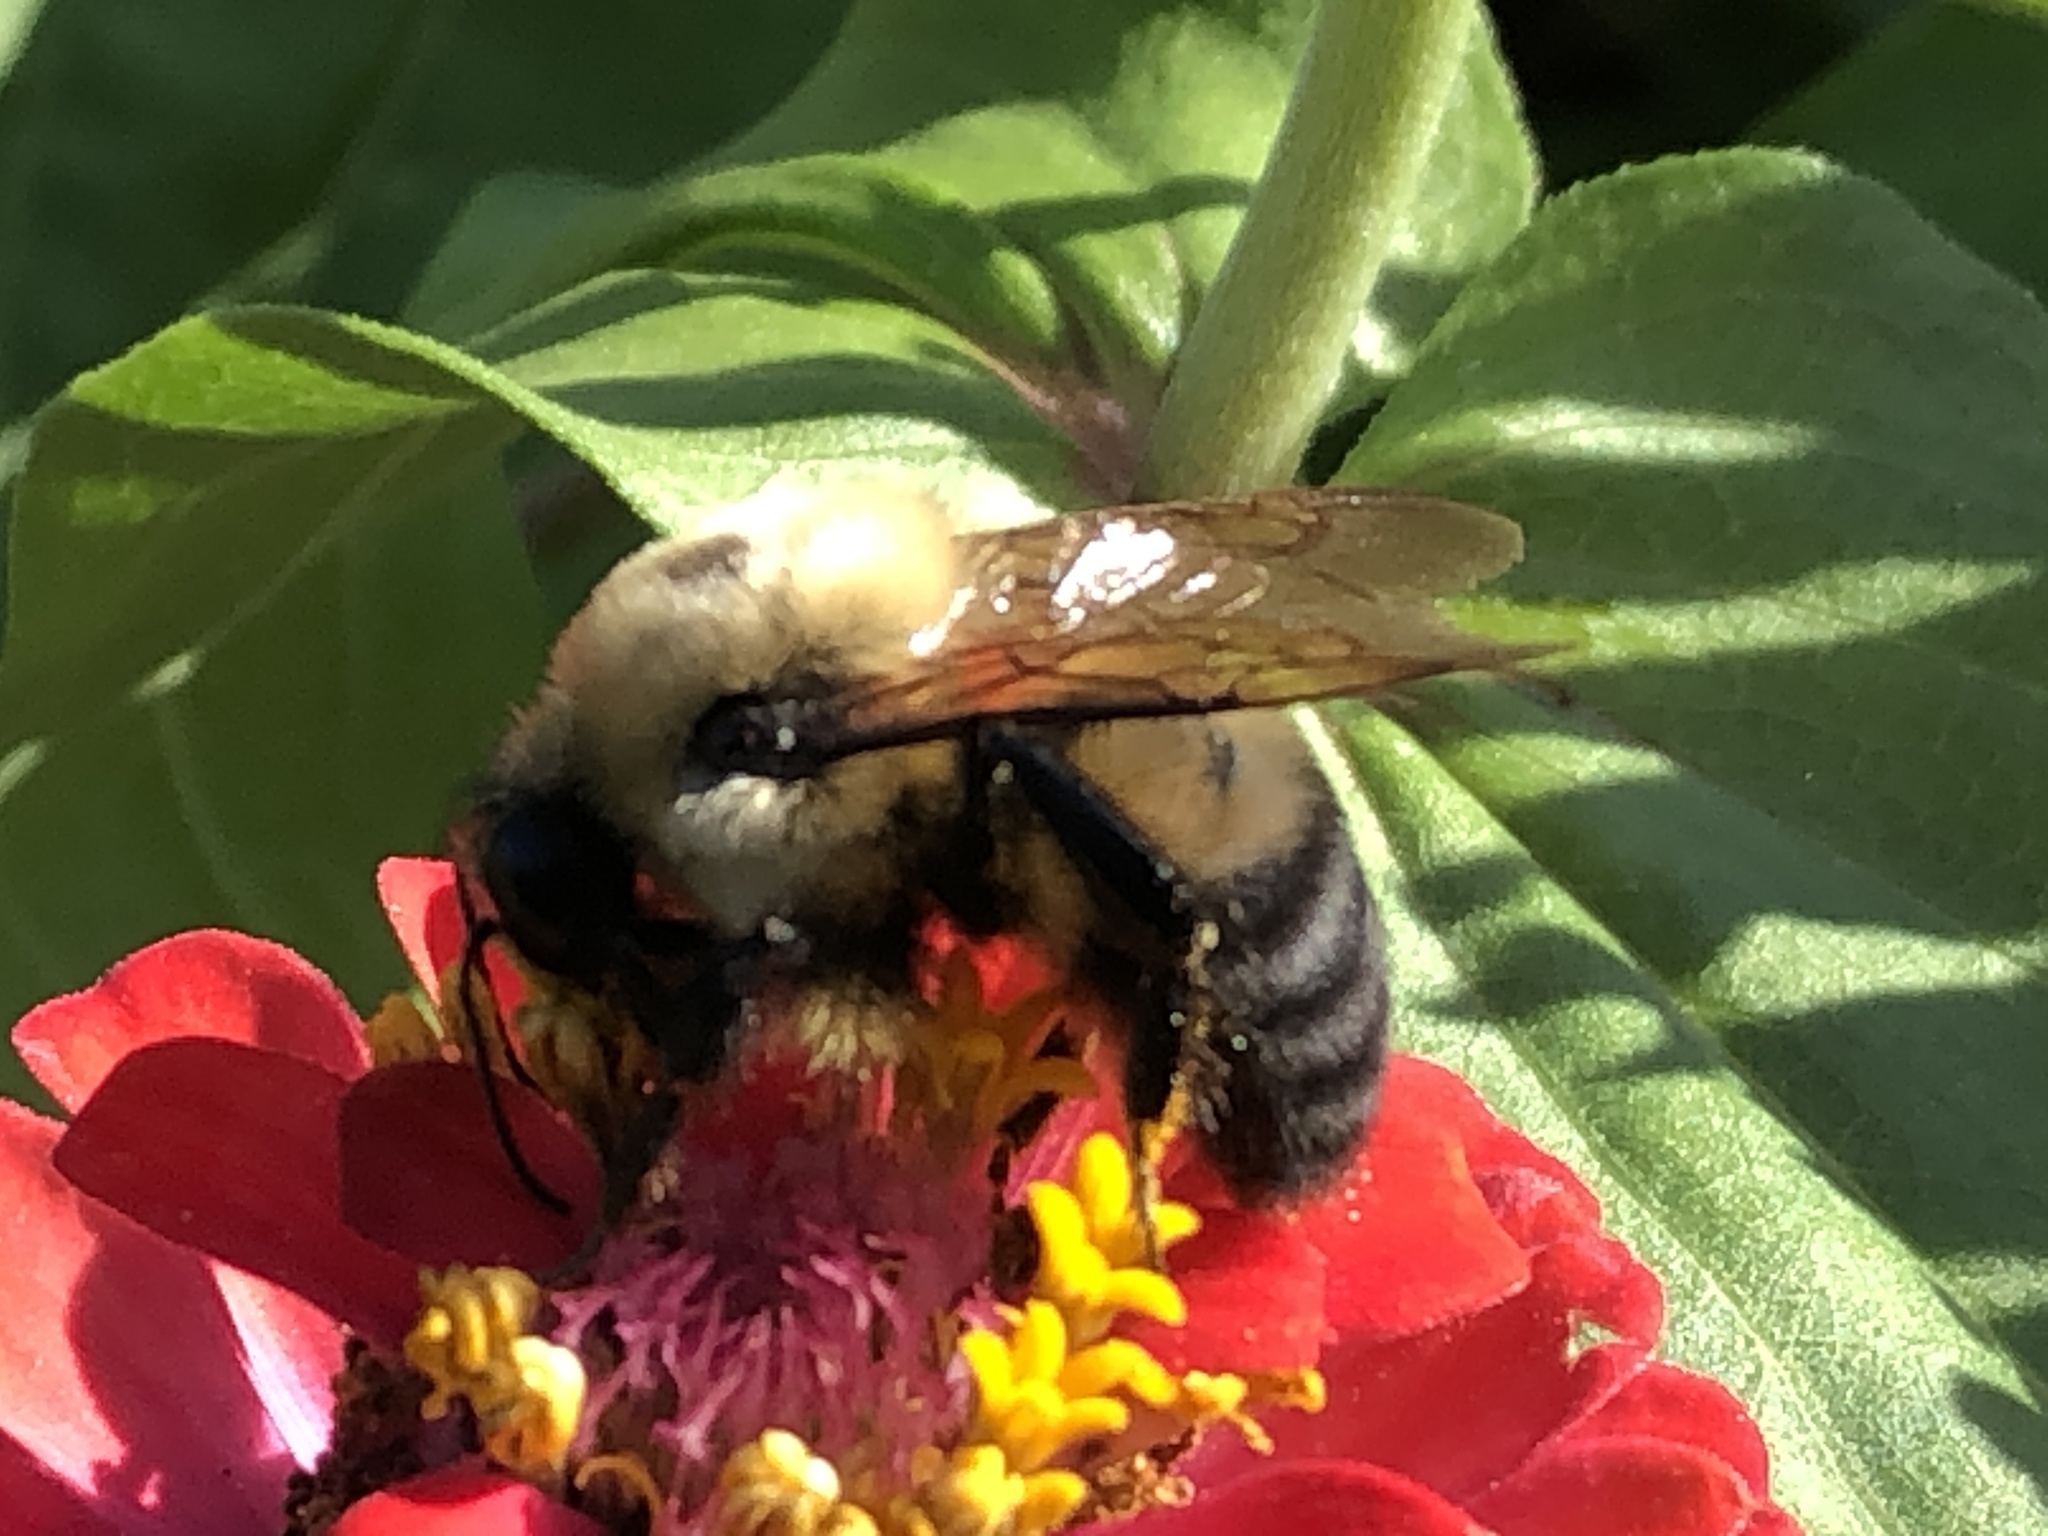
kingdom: Animalia
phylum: Arthropoda
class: Insecta
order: Hymenoptera
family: Apidae
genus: Bombus
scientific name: Bombus griseocollis
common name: Brown-belted bumble bee
